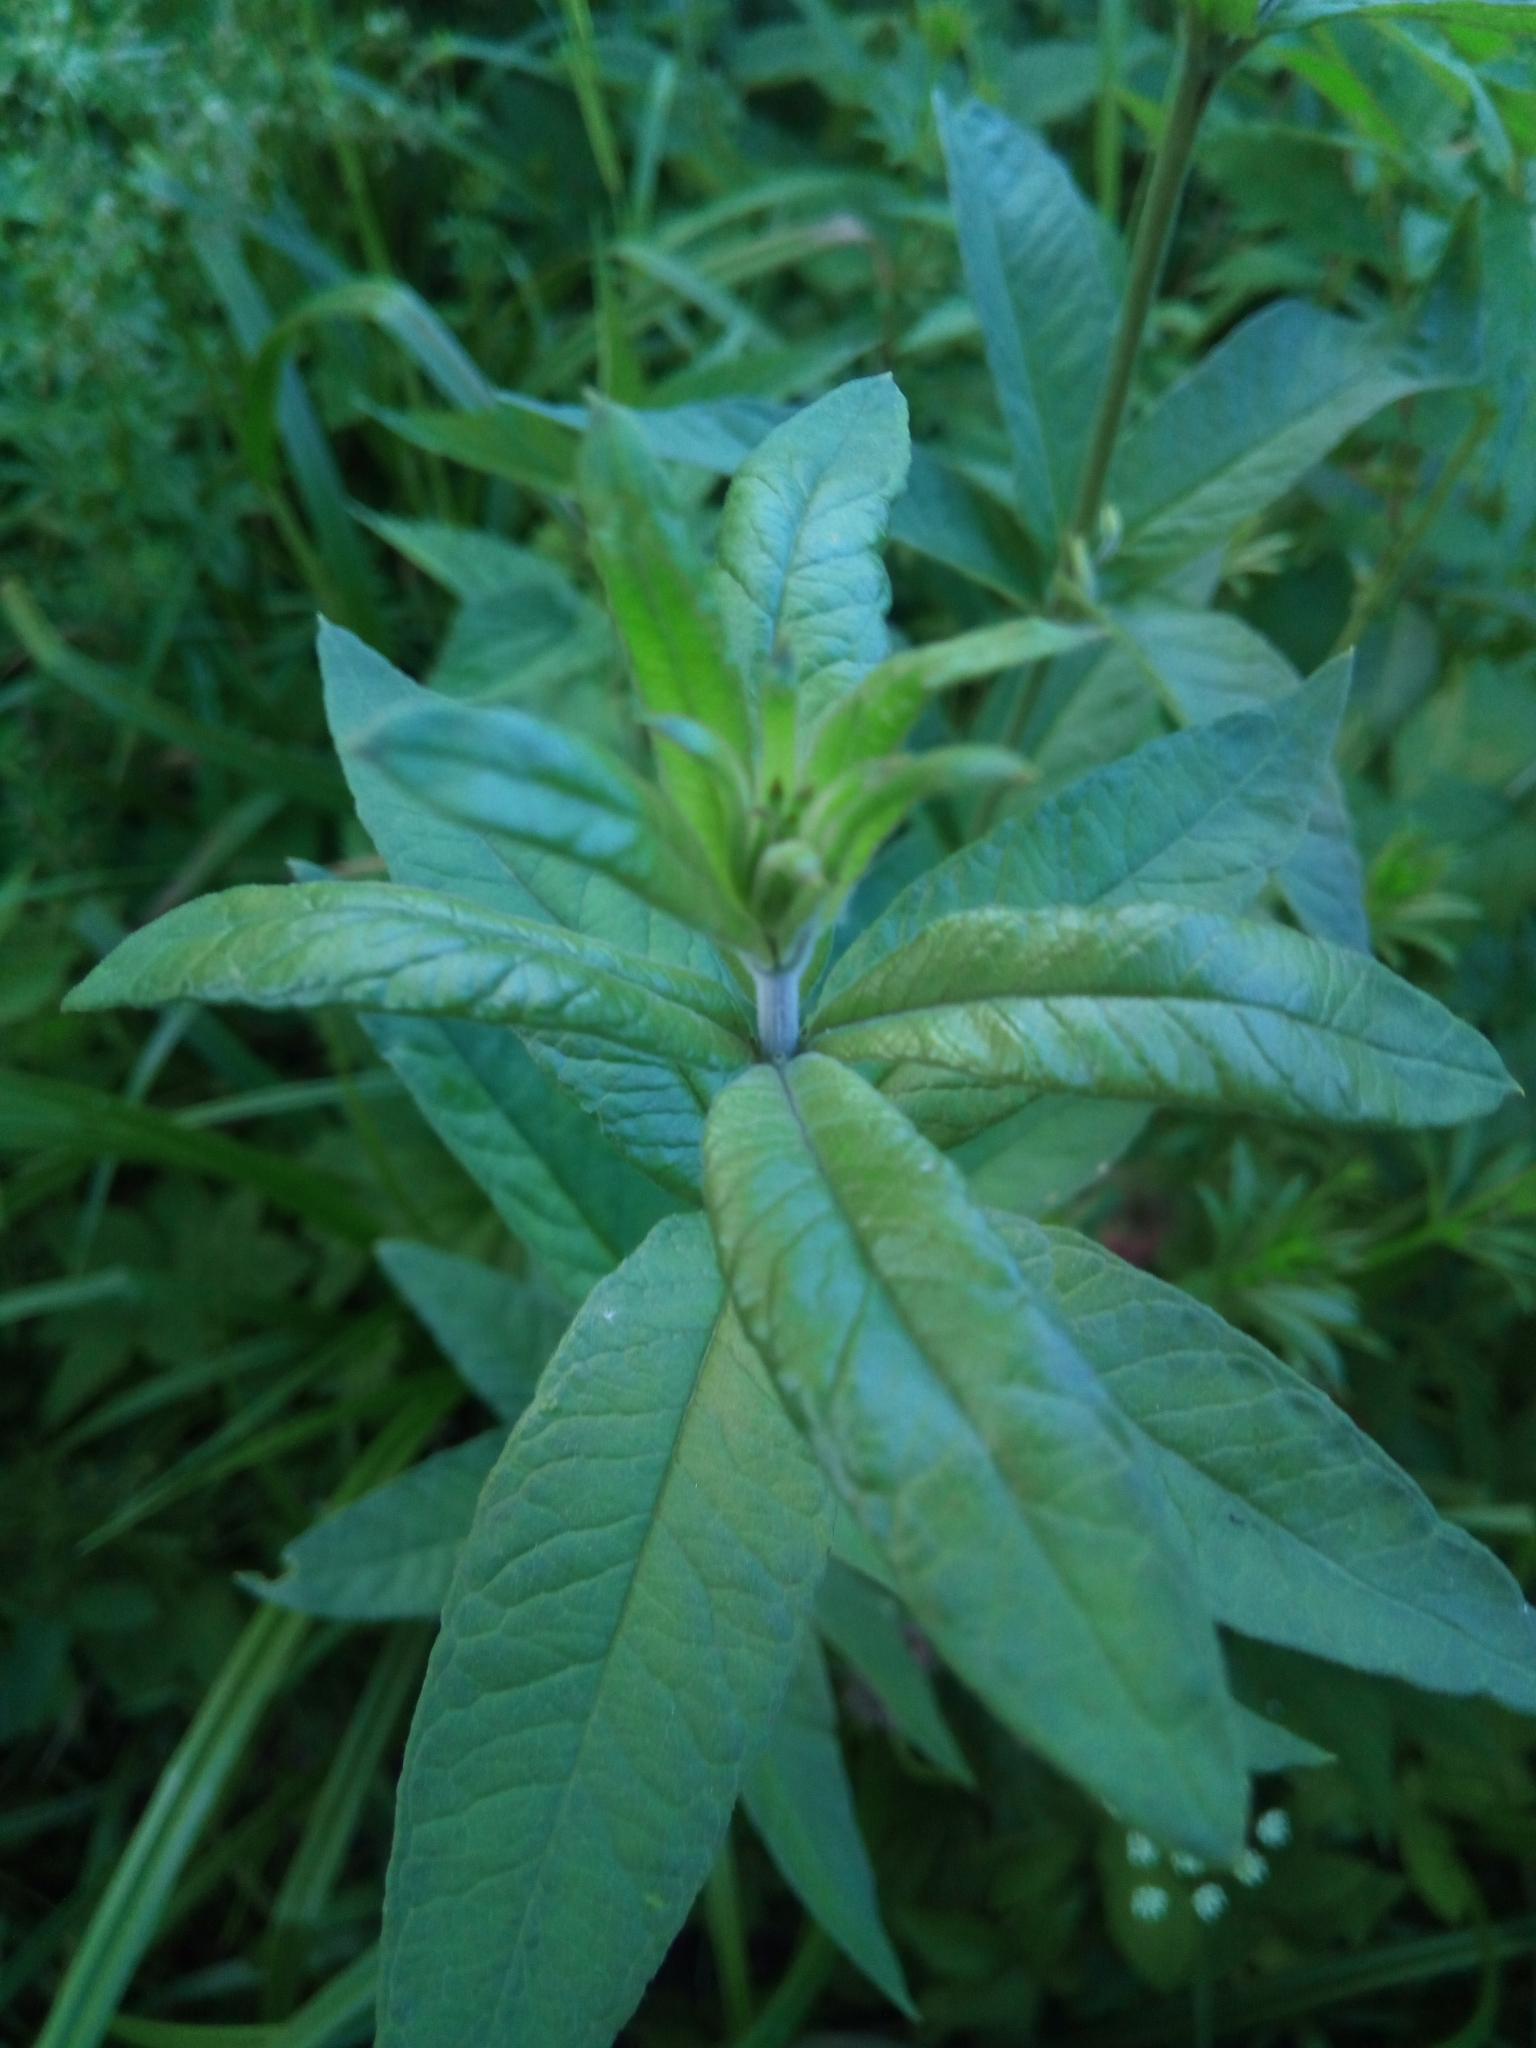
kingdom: Plantae
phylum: Tracheophyta
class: Magnoliopsida
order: Ericales
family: Primulaceae
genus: Lysimachia
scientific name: Lysimachia vulgaris
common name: Yellow loosestrife
